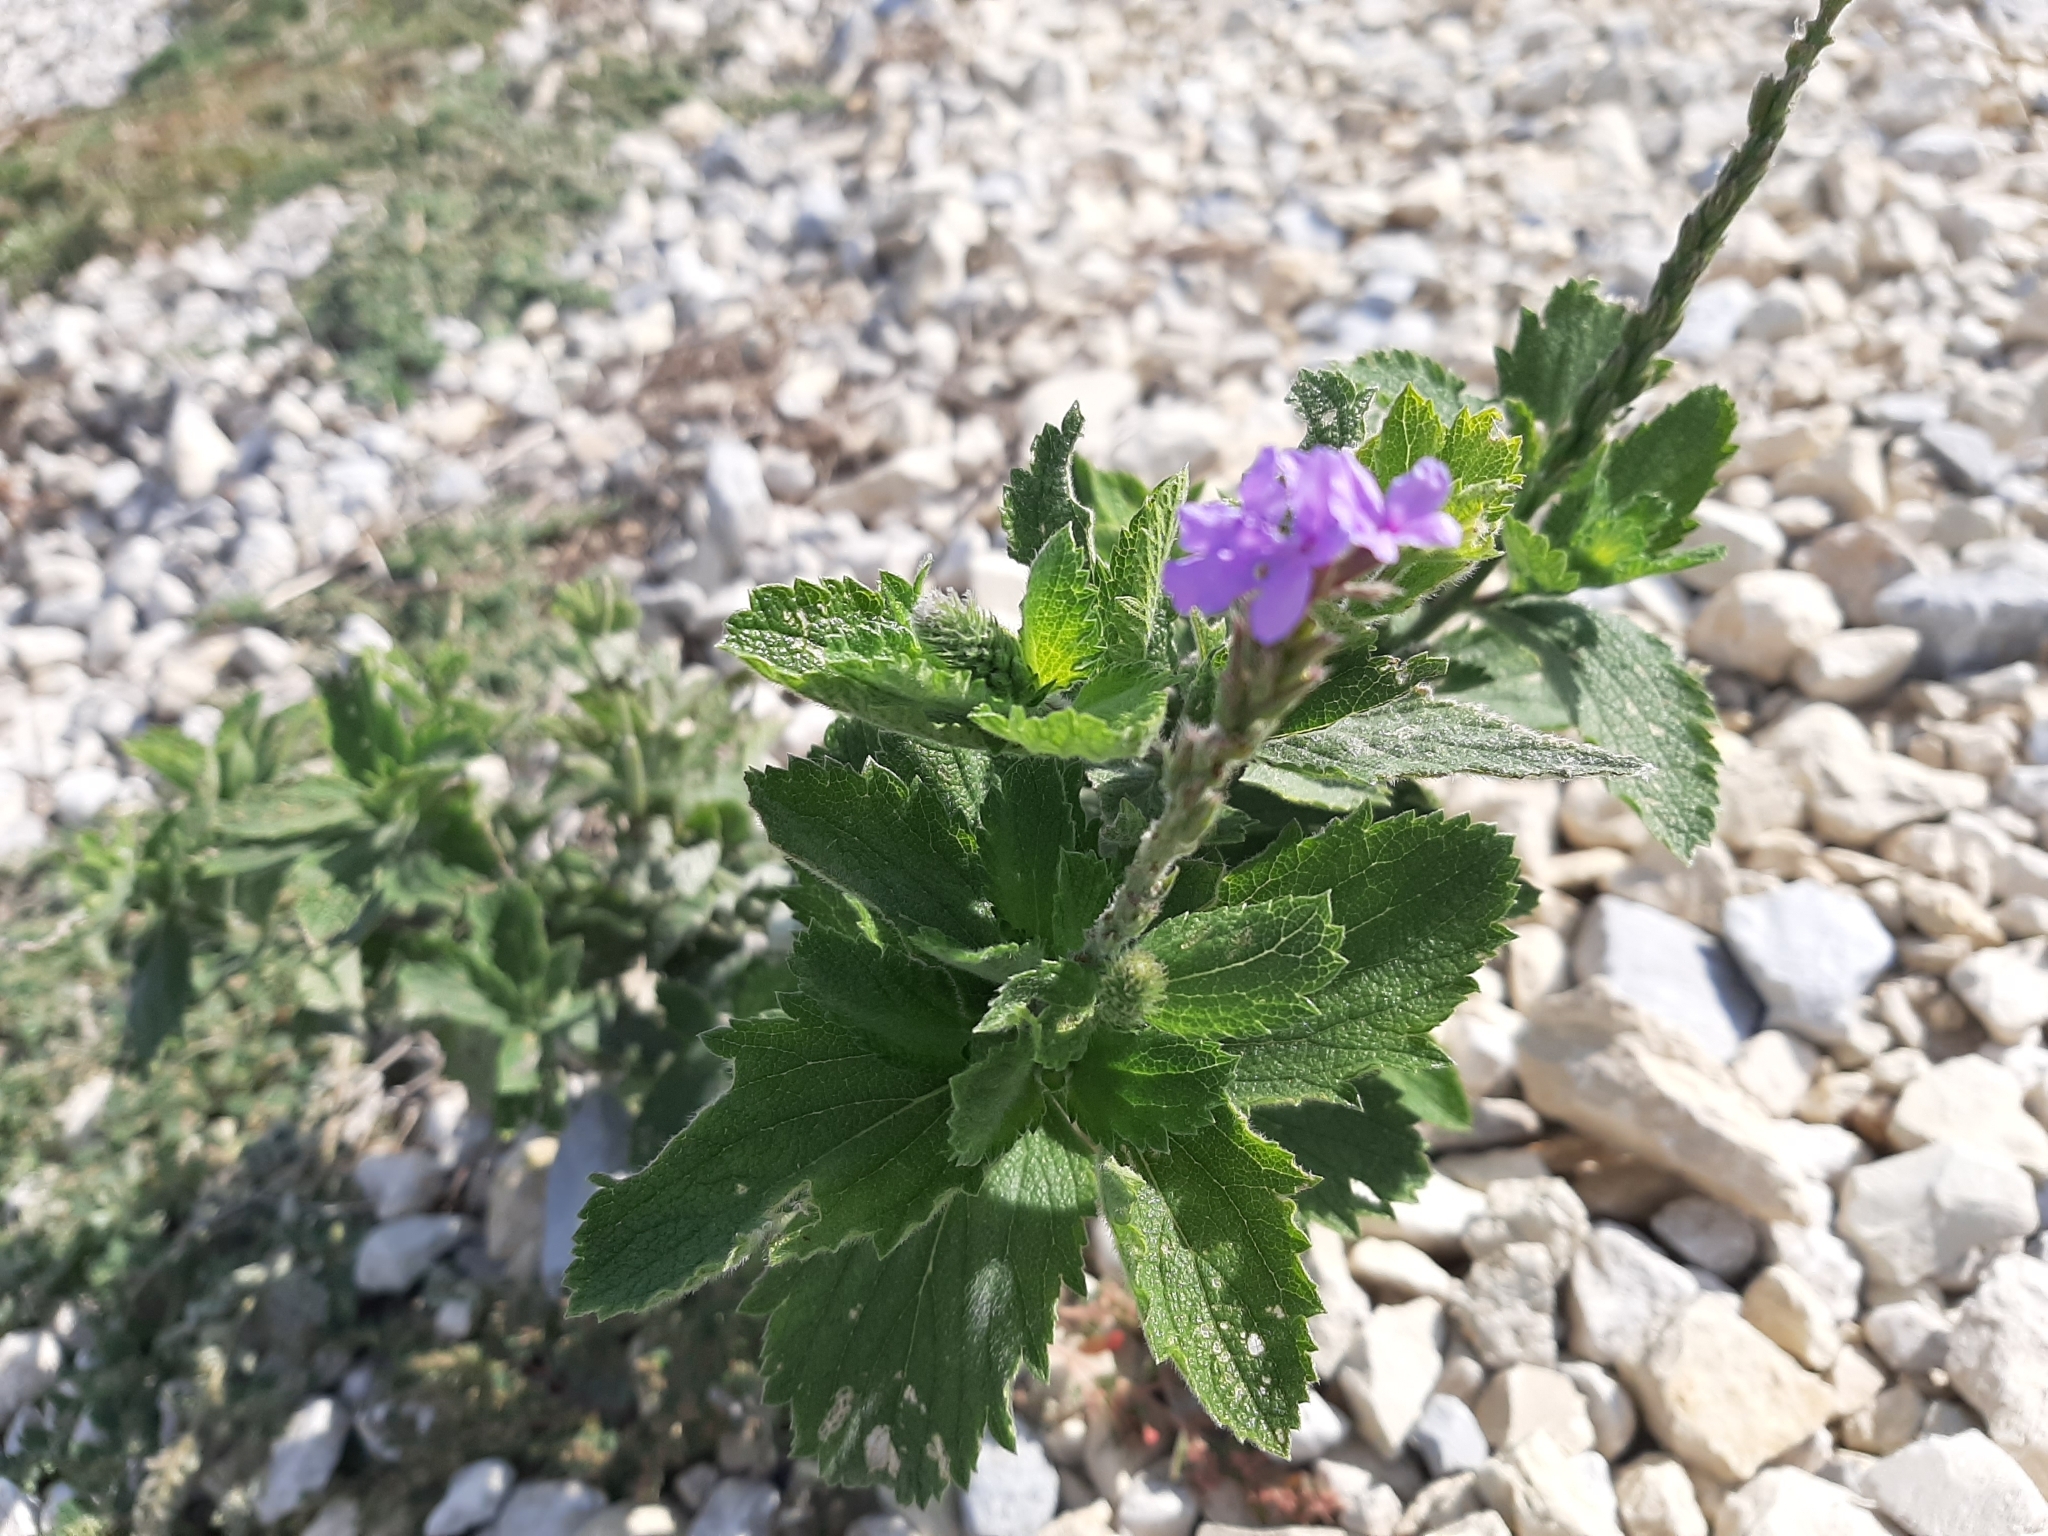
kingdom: Plantae
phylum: Tracheophyta
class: Magnoliopsida
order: Lamiales
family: Verbenaceae
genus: Verbena
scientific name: Verbena stricta
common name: Hoary vervain
